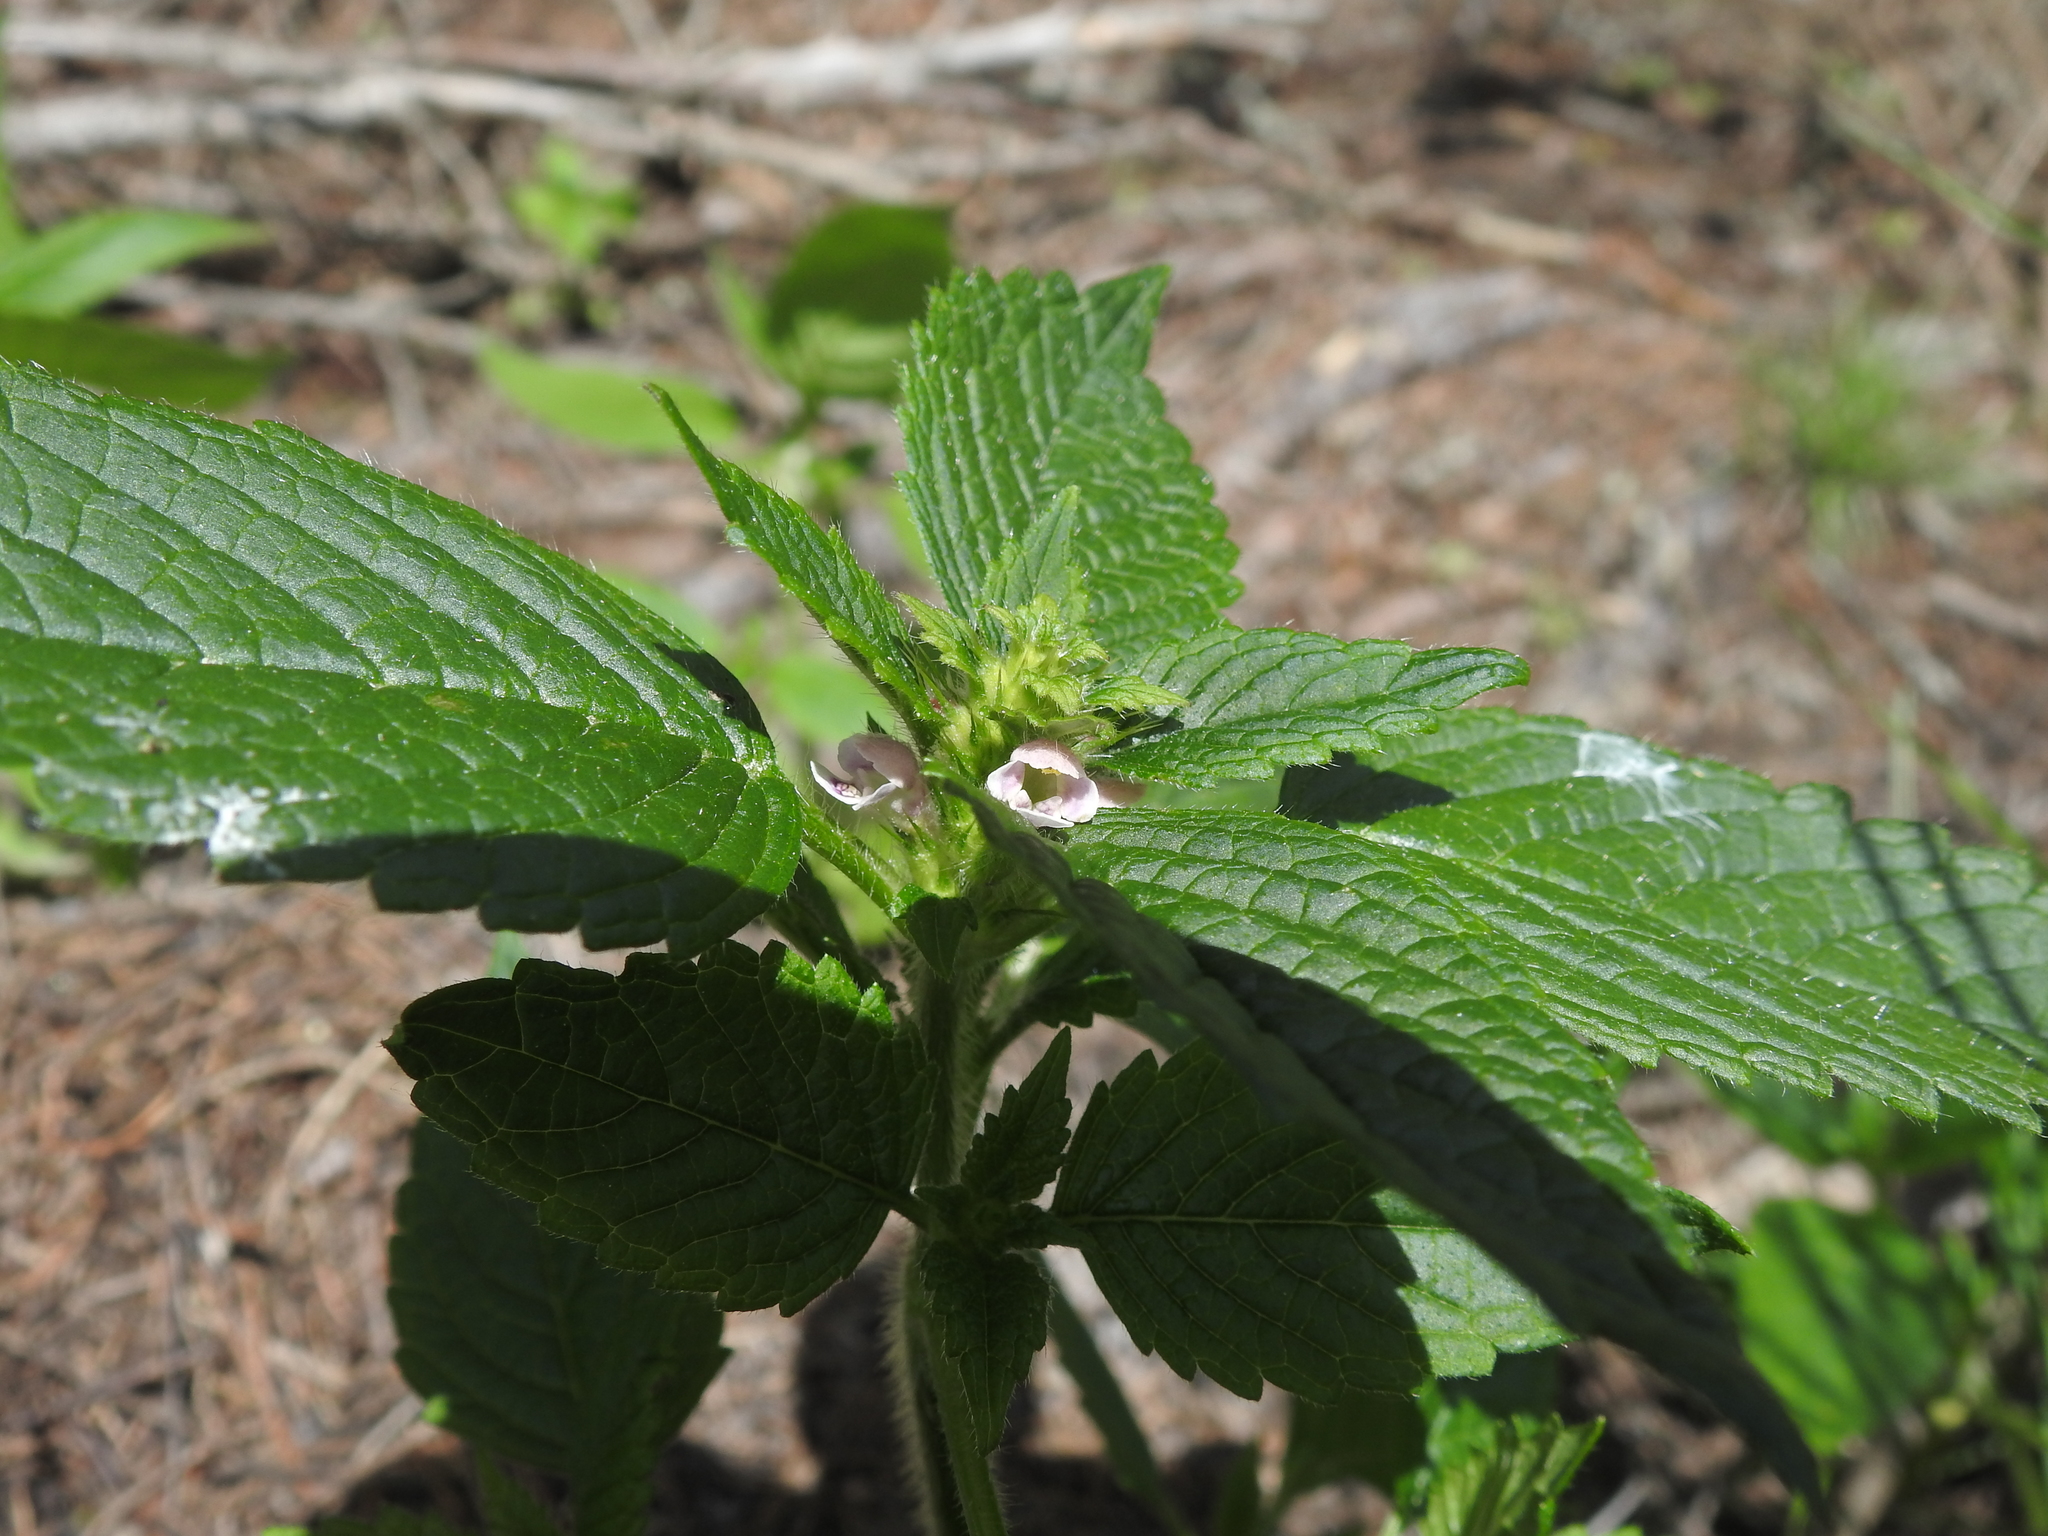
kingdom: Plantae
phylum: Tracheophyta
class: Magnoliopsida
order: Lamiales
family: Lamiaceae
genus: Galeopsis
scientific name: Galeopsis tetrahit
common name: Common hemp-nettle
